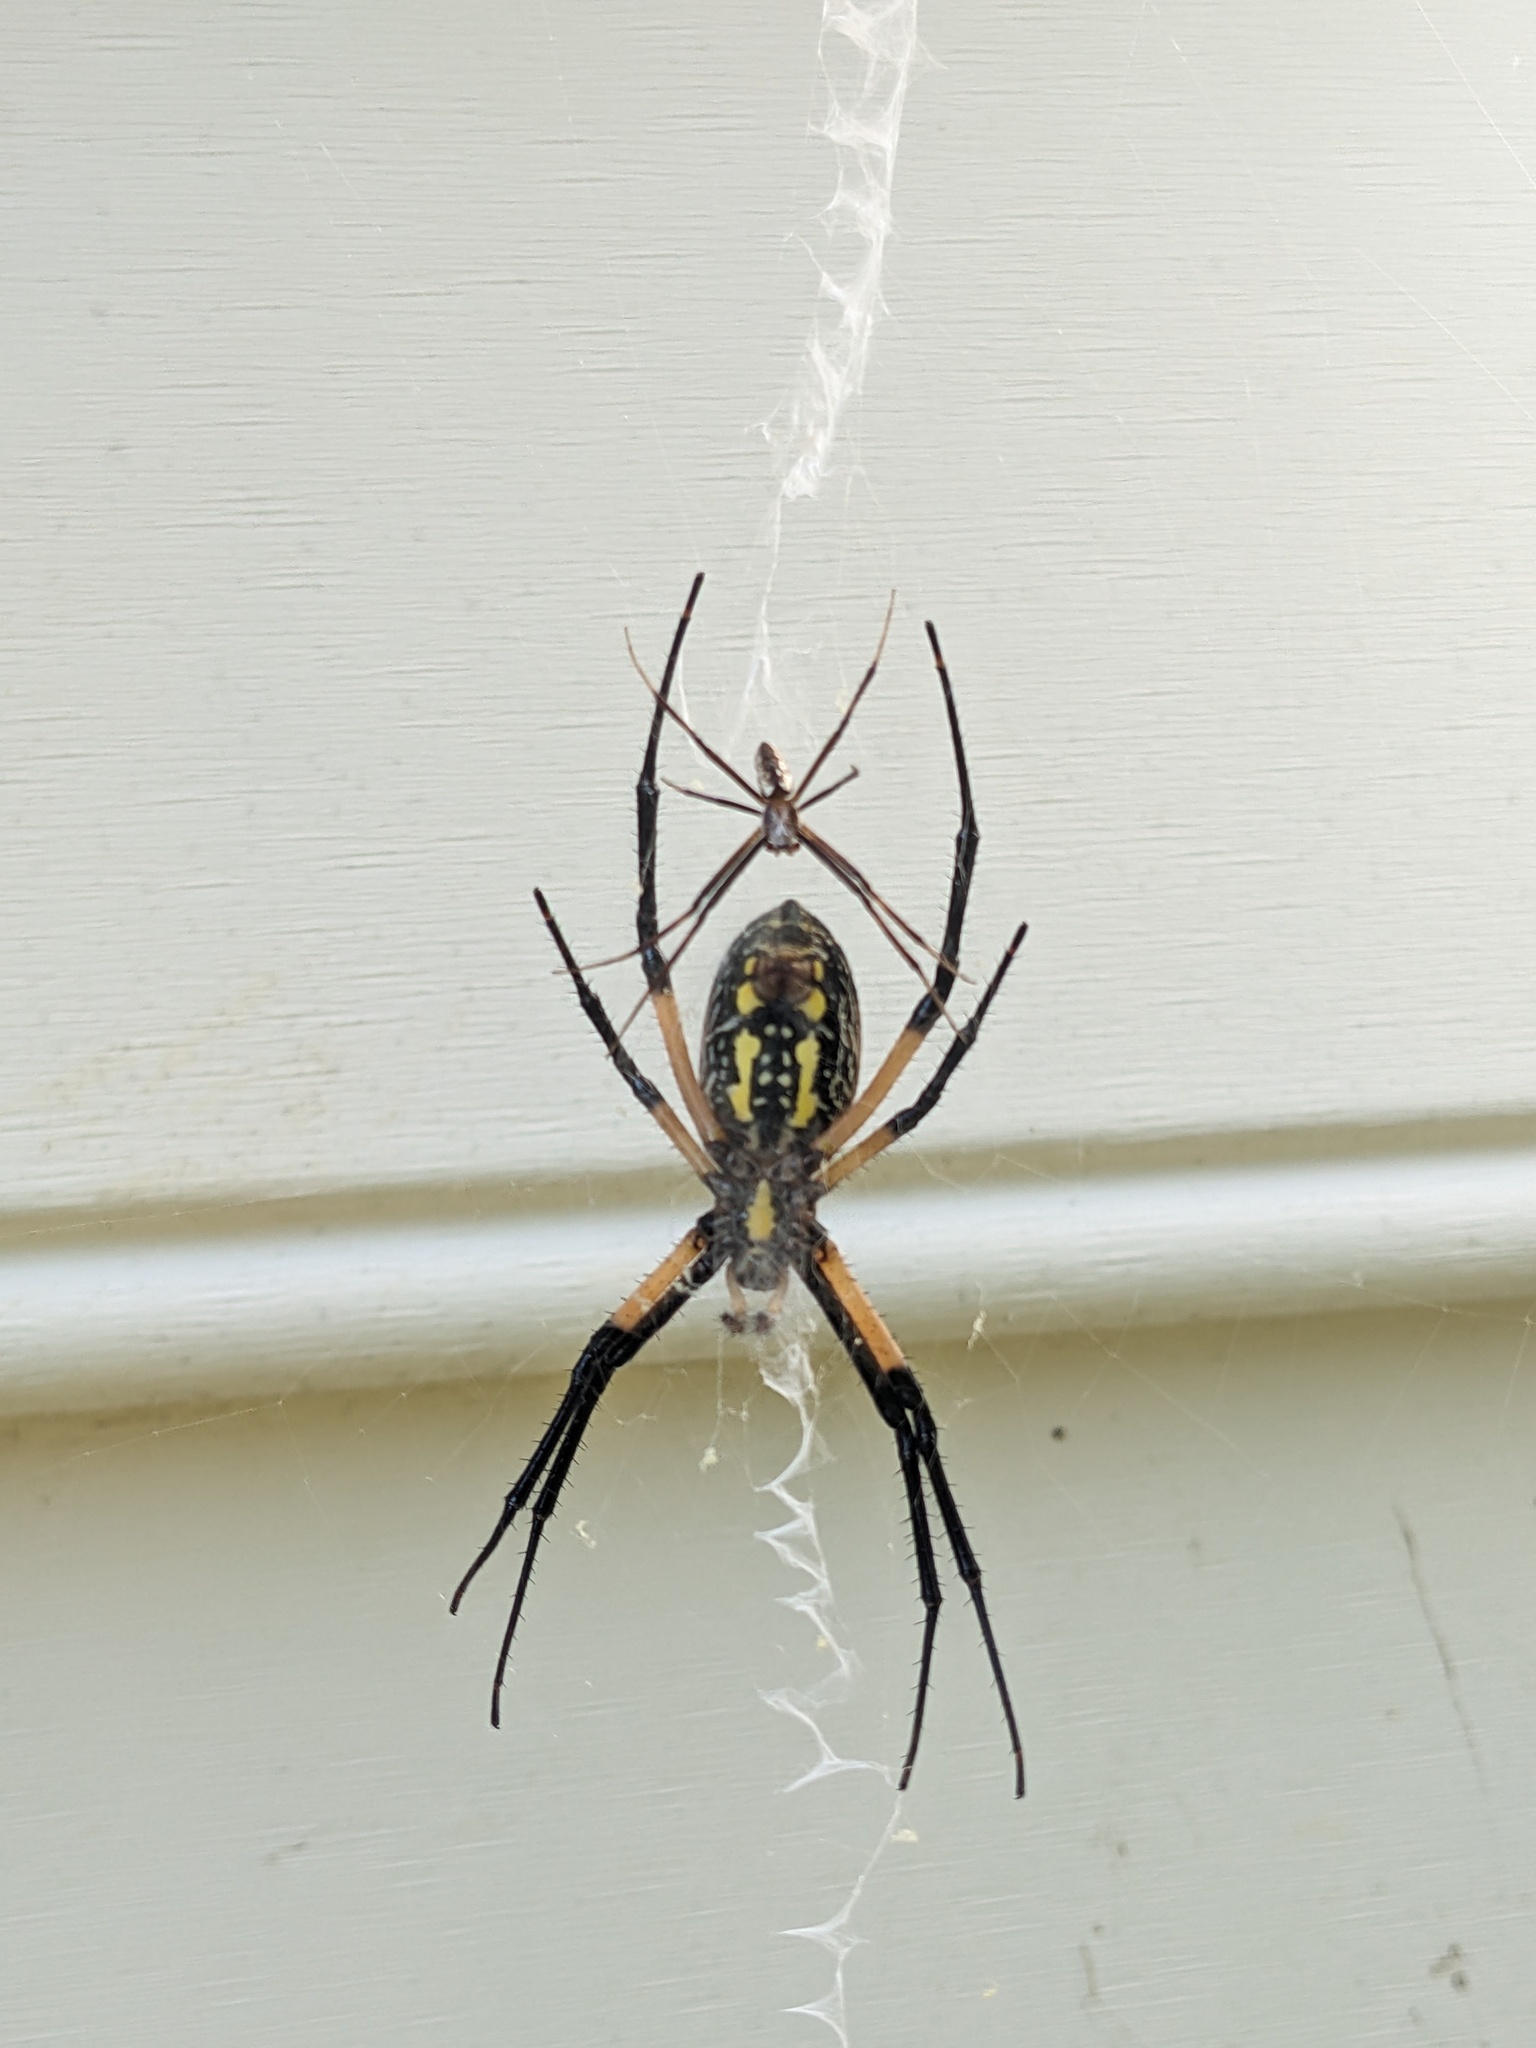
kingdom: Animalia
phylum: Arthropoda
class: Arachnida
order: Araneae
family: Araneidae
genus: Argiope
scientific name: Argiope aurantia
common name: Orb weavers
